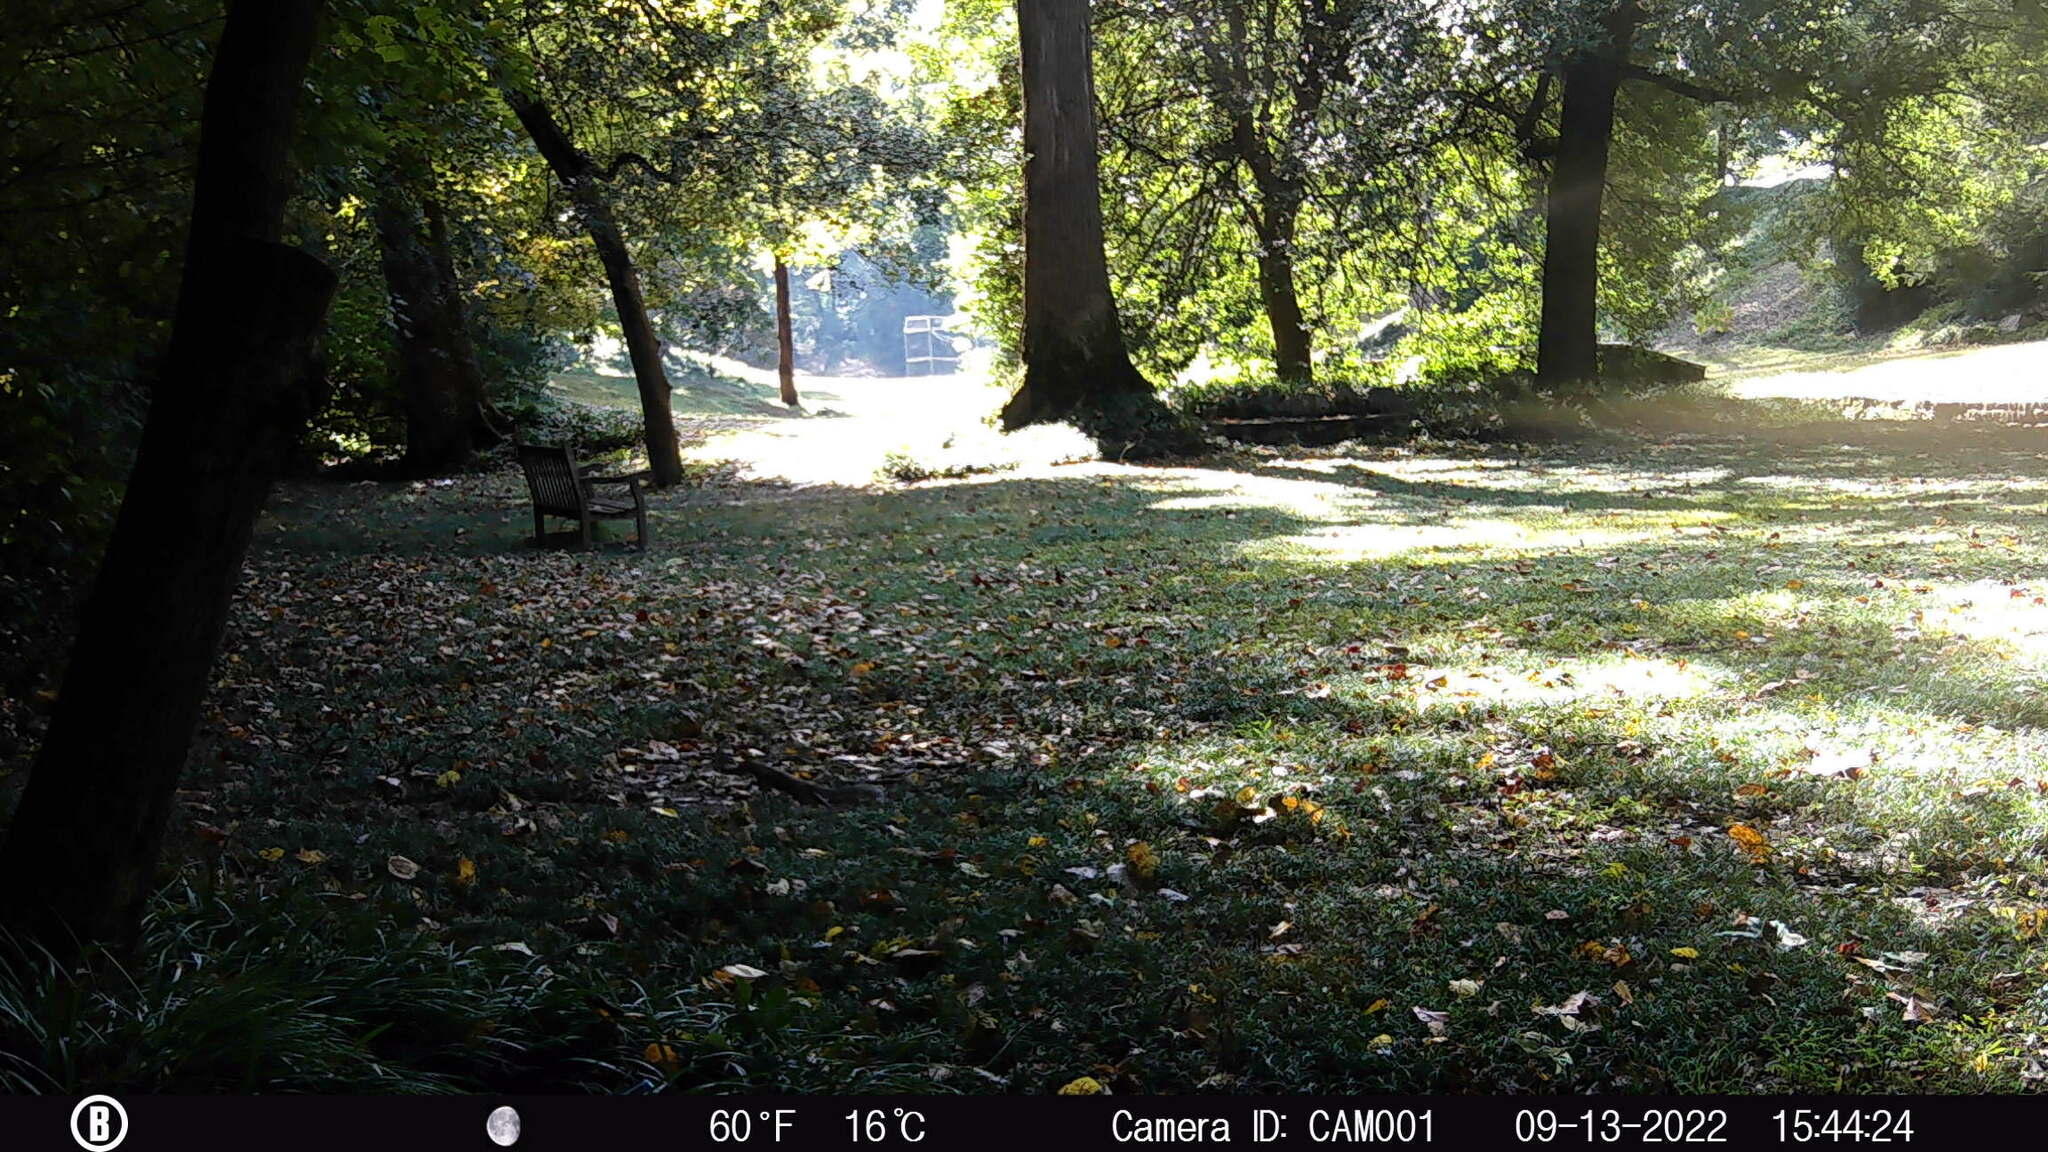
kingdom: Animalia
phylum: Chordata
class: Mammalia
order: Rodentia
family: Sciuridae
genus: Sciurus
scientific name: Sciurus carolinensis
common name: Eastern gray squirrel
